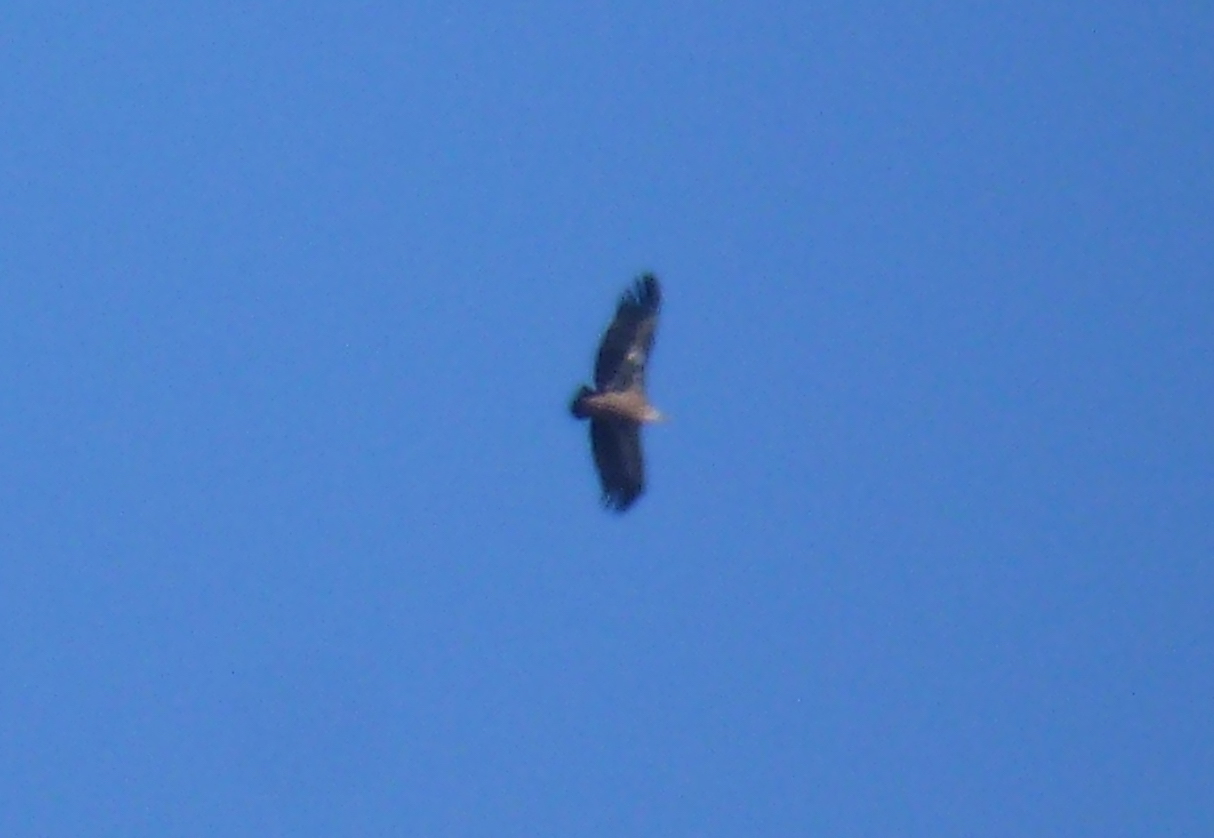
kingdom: Animalia
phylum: Chordata
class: Aves
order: Accipitriformes
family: Accipitridae
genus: Gyps
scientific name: Gyps fulvus
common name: Griffon vulture
